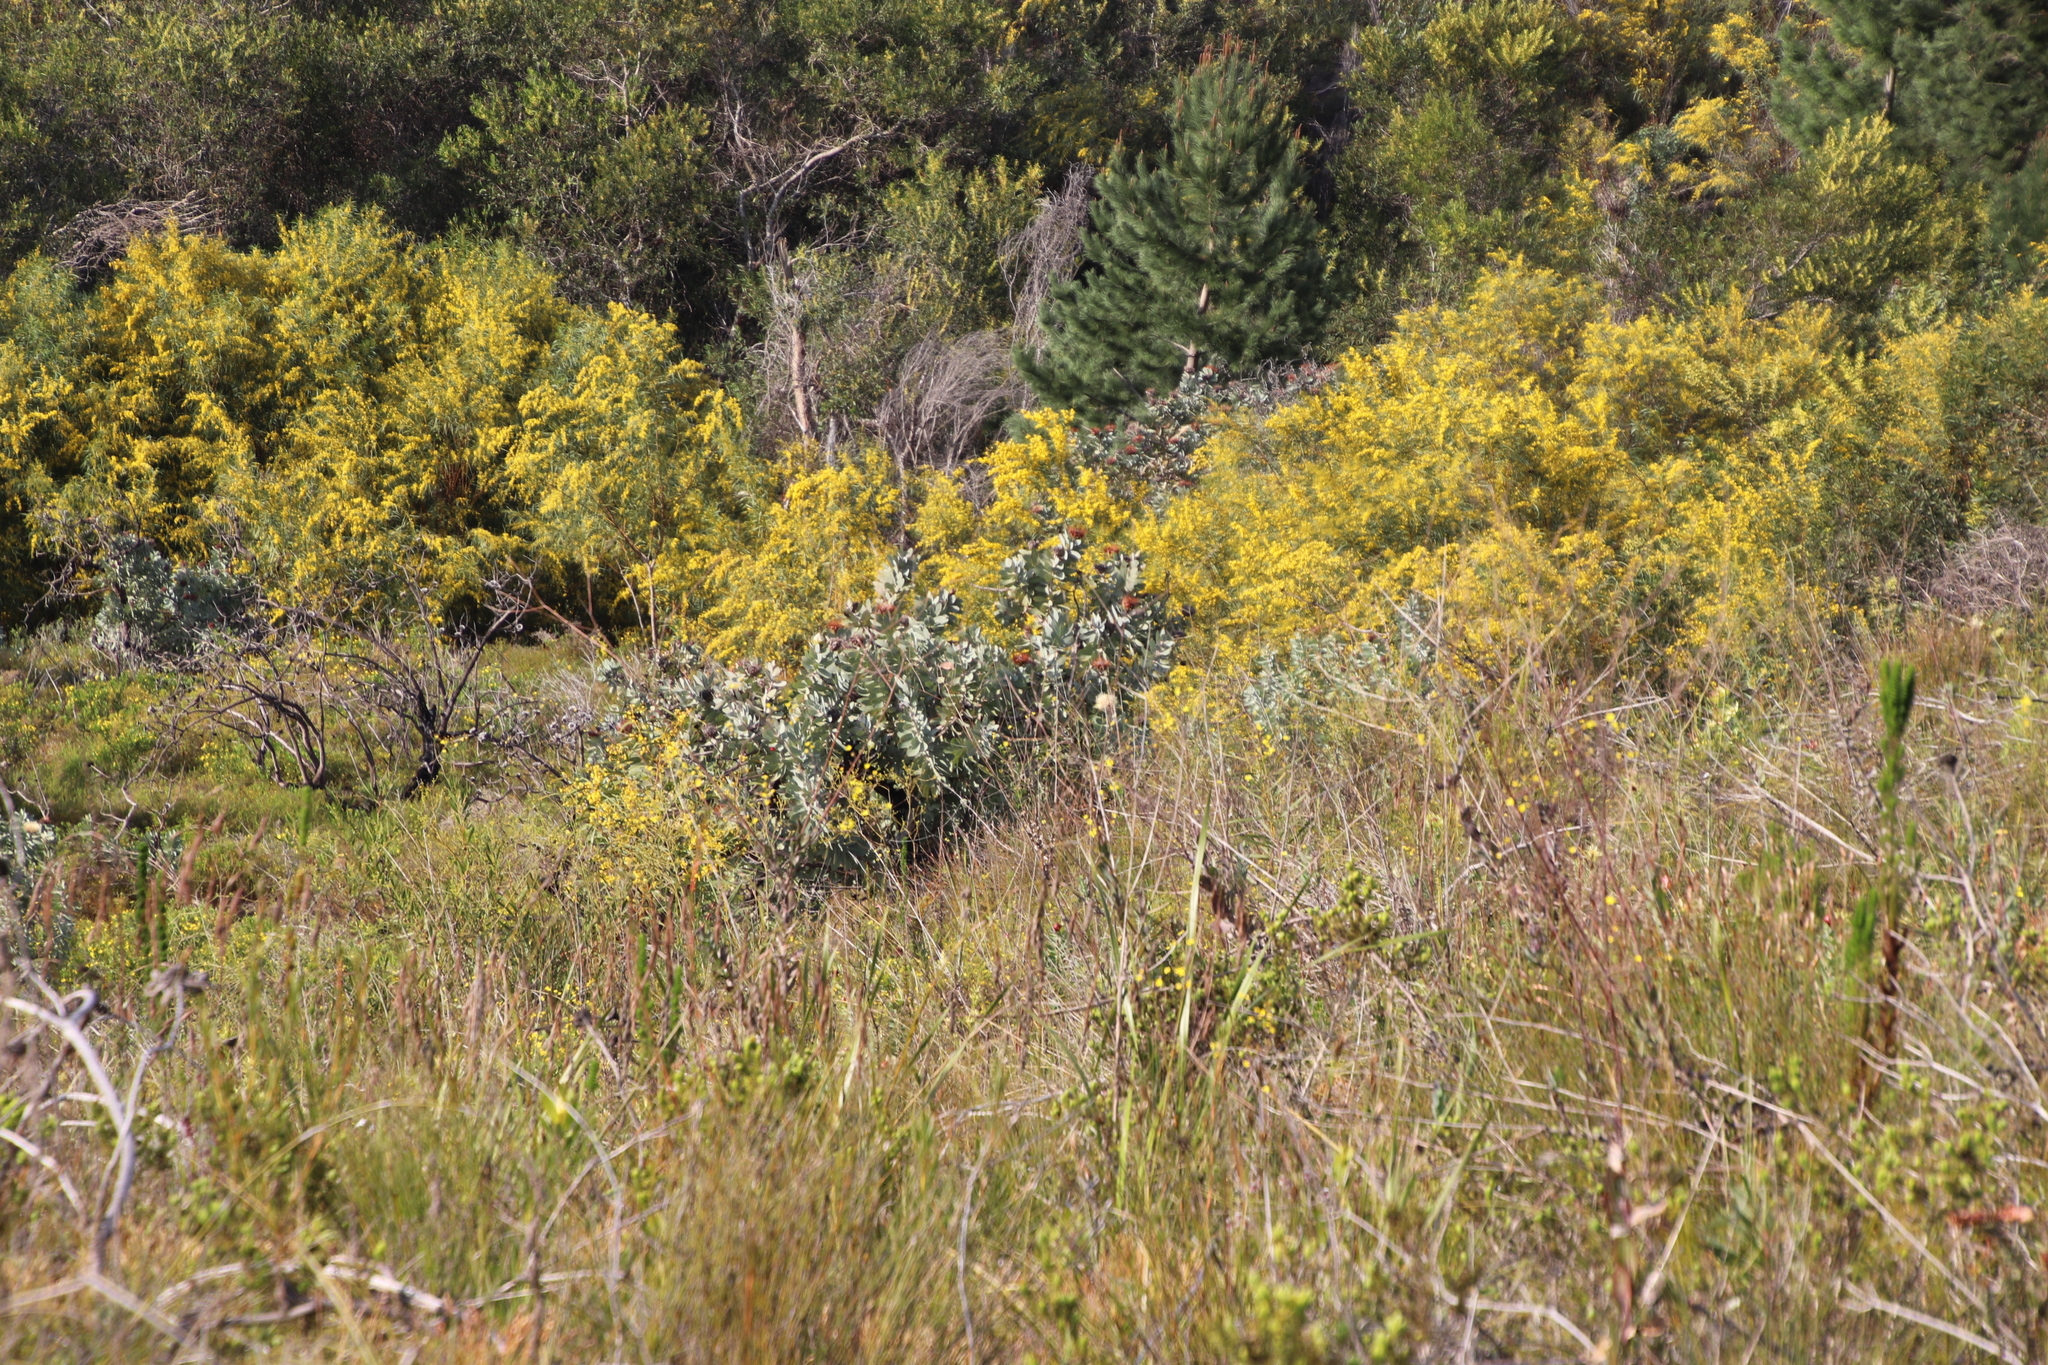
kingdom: Plantae
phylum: Tracheophyta
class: Magnoliopsida
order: Proteales
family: Proteaceae
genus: Protea
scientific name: Protea nitida
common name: Tree protea
